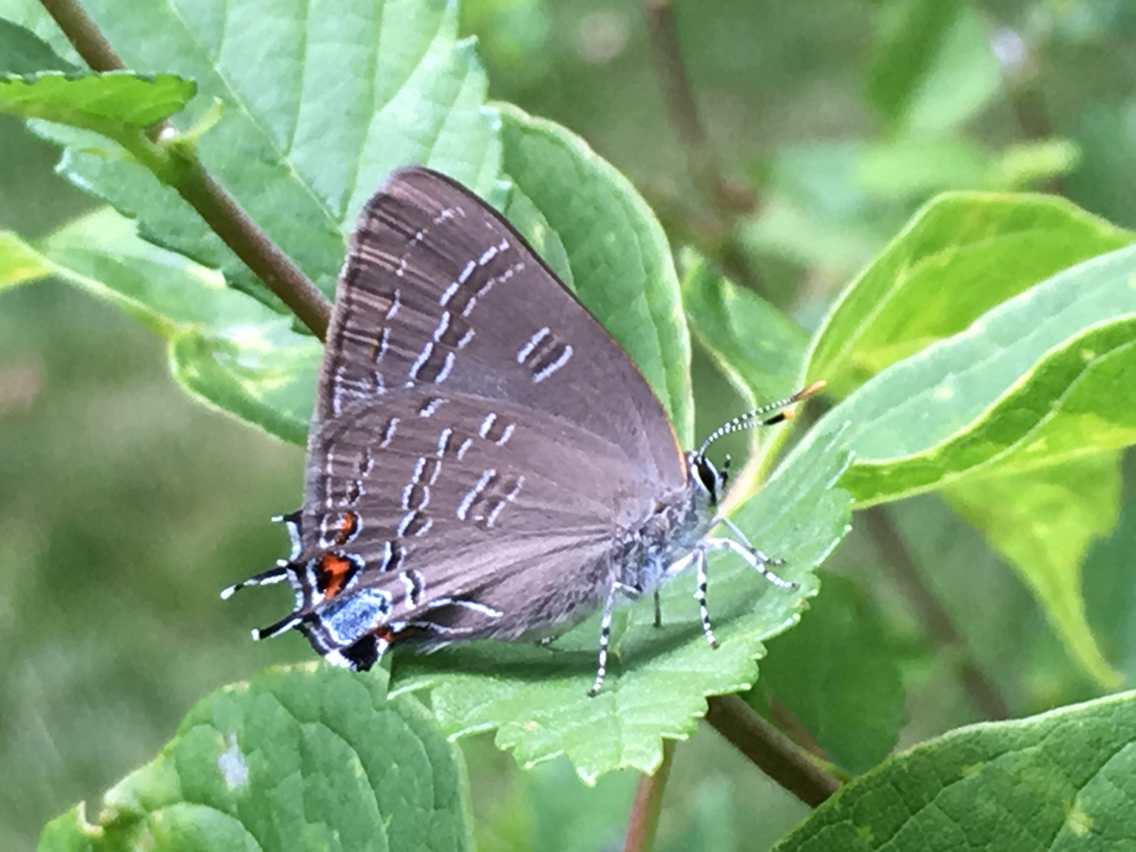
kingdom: Animalia
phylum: Arthropoda
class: Insecta
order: Lepidoptera
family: Lycaenidae
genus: Satyrium
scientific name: Satyrium calanus
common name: Banded hairstreak
